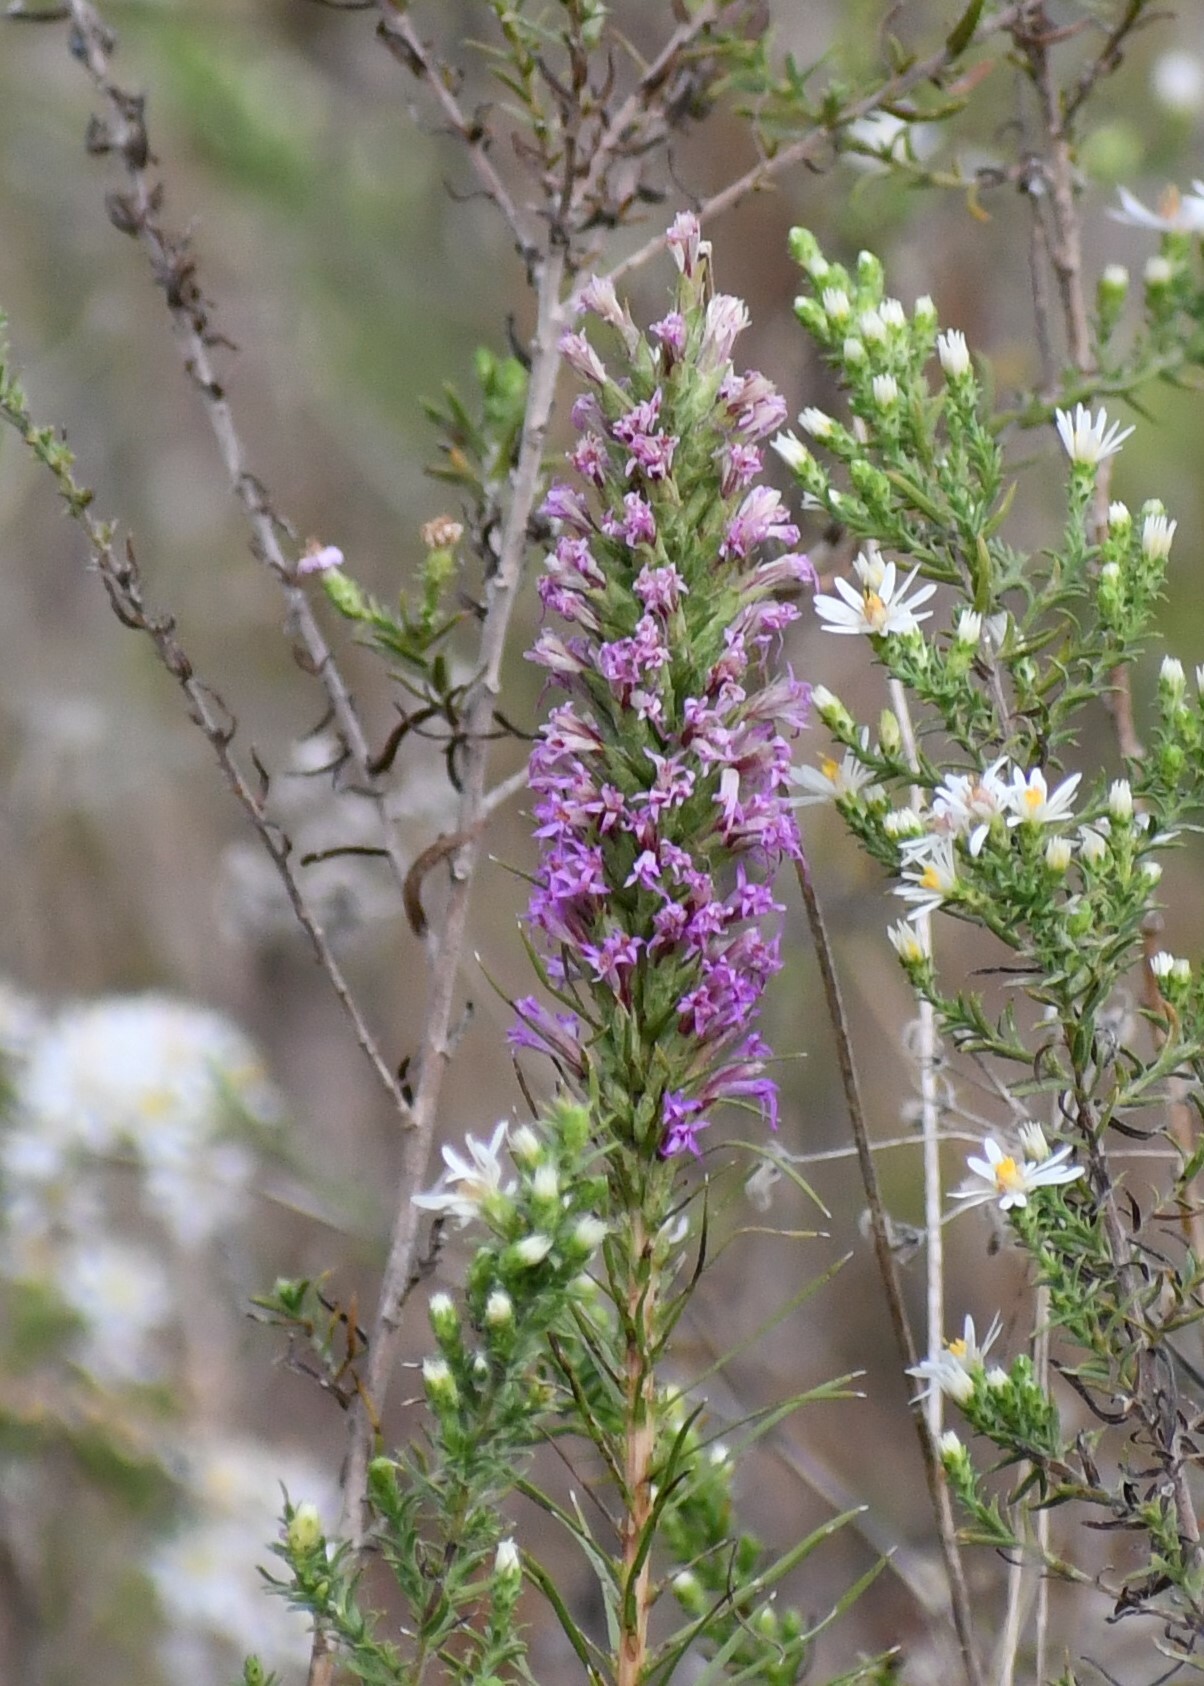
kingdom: Plantae
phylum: Tracheophyta
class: Magnoliopsida
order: Asterales
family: Asteraceae
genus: Liatris
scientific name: Liatris punctata
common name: Dotted gayfeather
